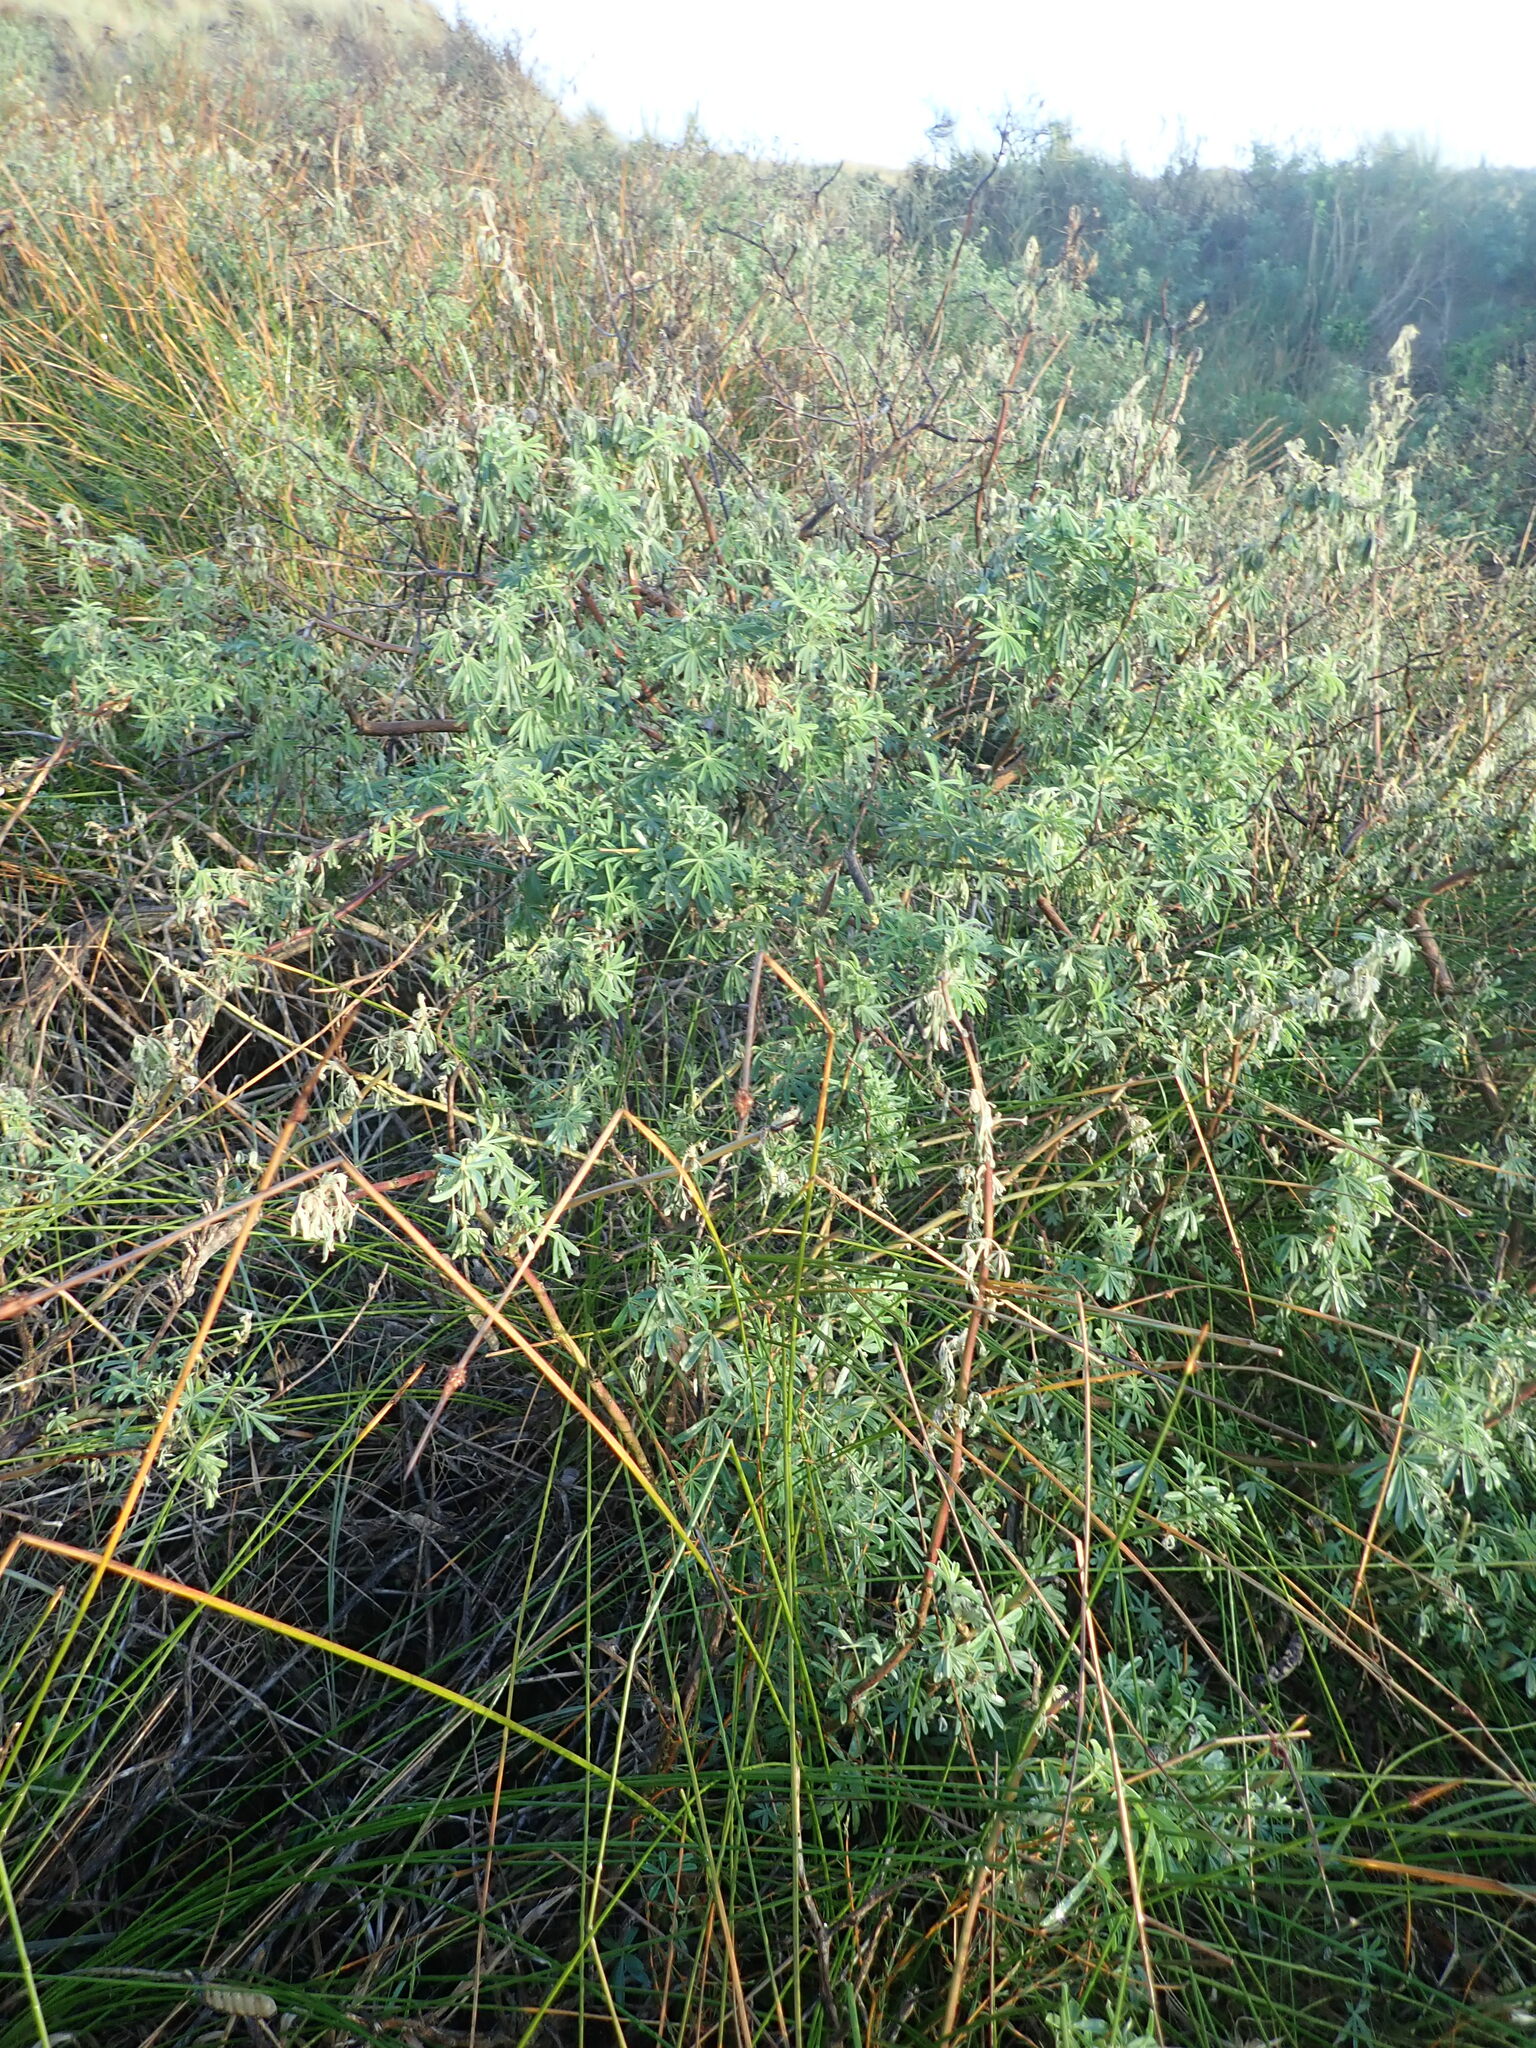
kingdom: Plantae
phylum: Tracheophyta
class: Magnoliopsida
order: Fabales
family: Fabaceae
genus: Lupinus
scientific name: Lupinus arboreus
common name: Yellow bush lupine
